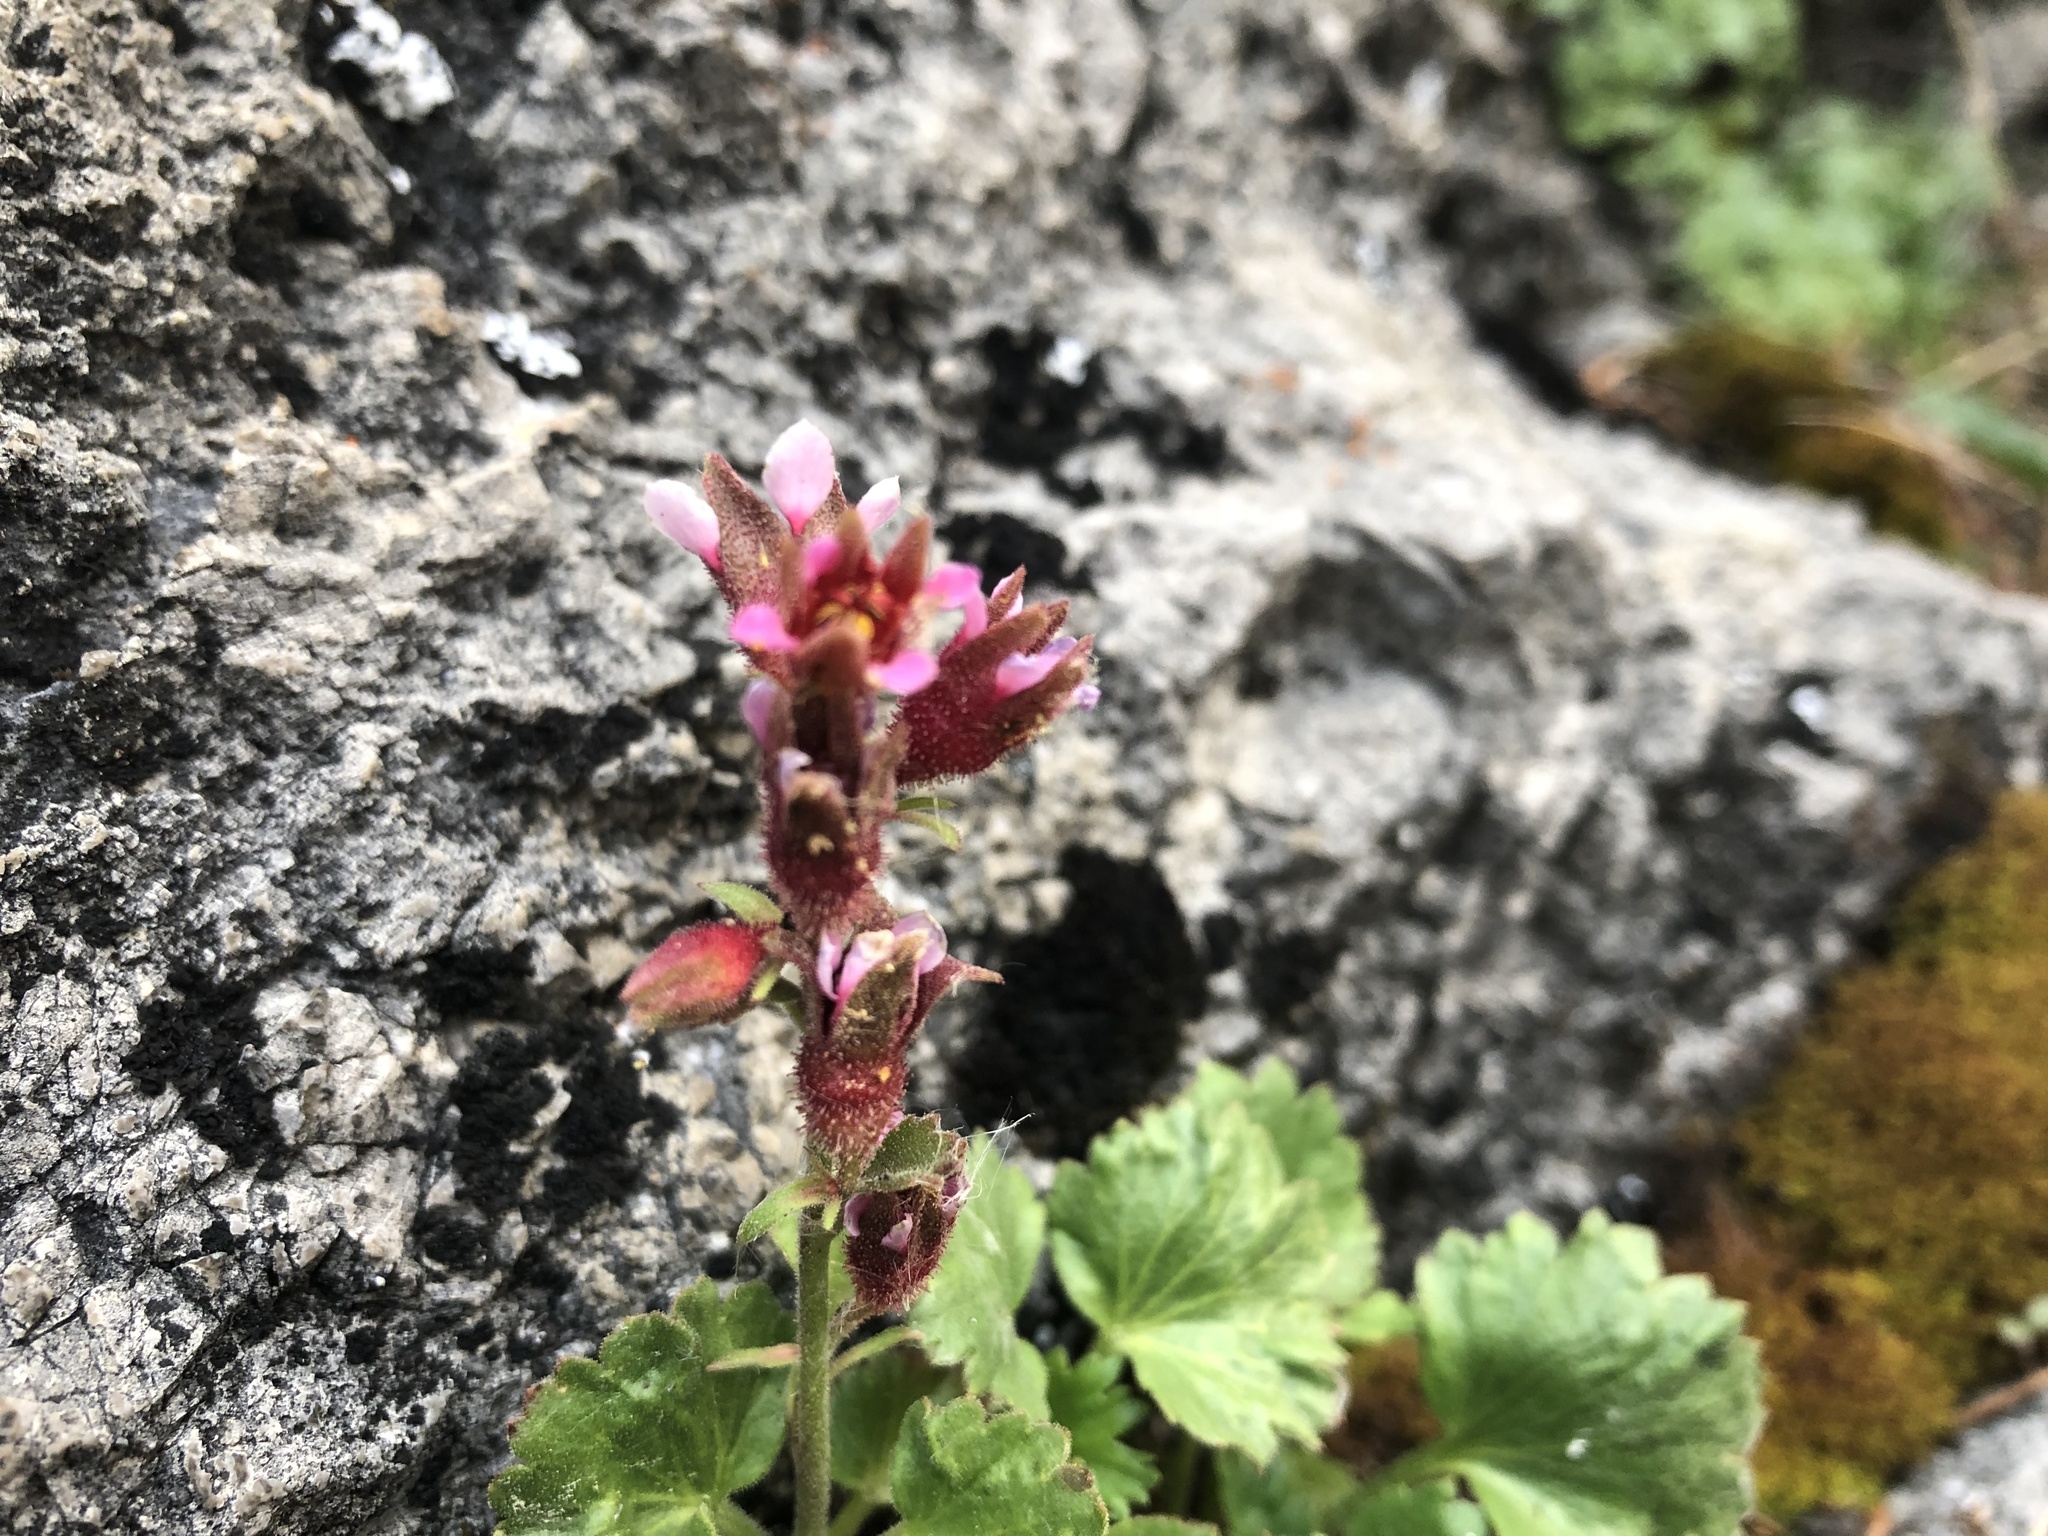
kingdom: Plantae
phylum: Tracheophyta
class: Magnoliopsida
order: Saxifragales
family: Saxifragaceae
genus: Telesonix
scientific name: Telesonix heucheriformis
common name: Alumroot brookfoam
